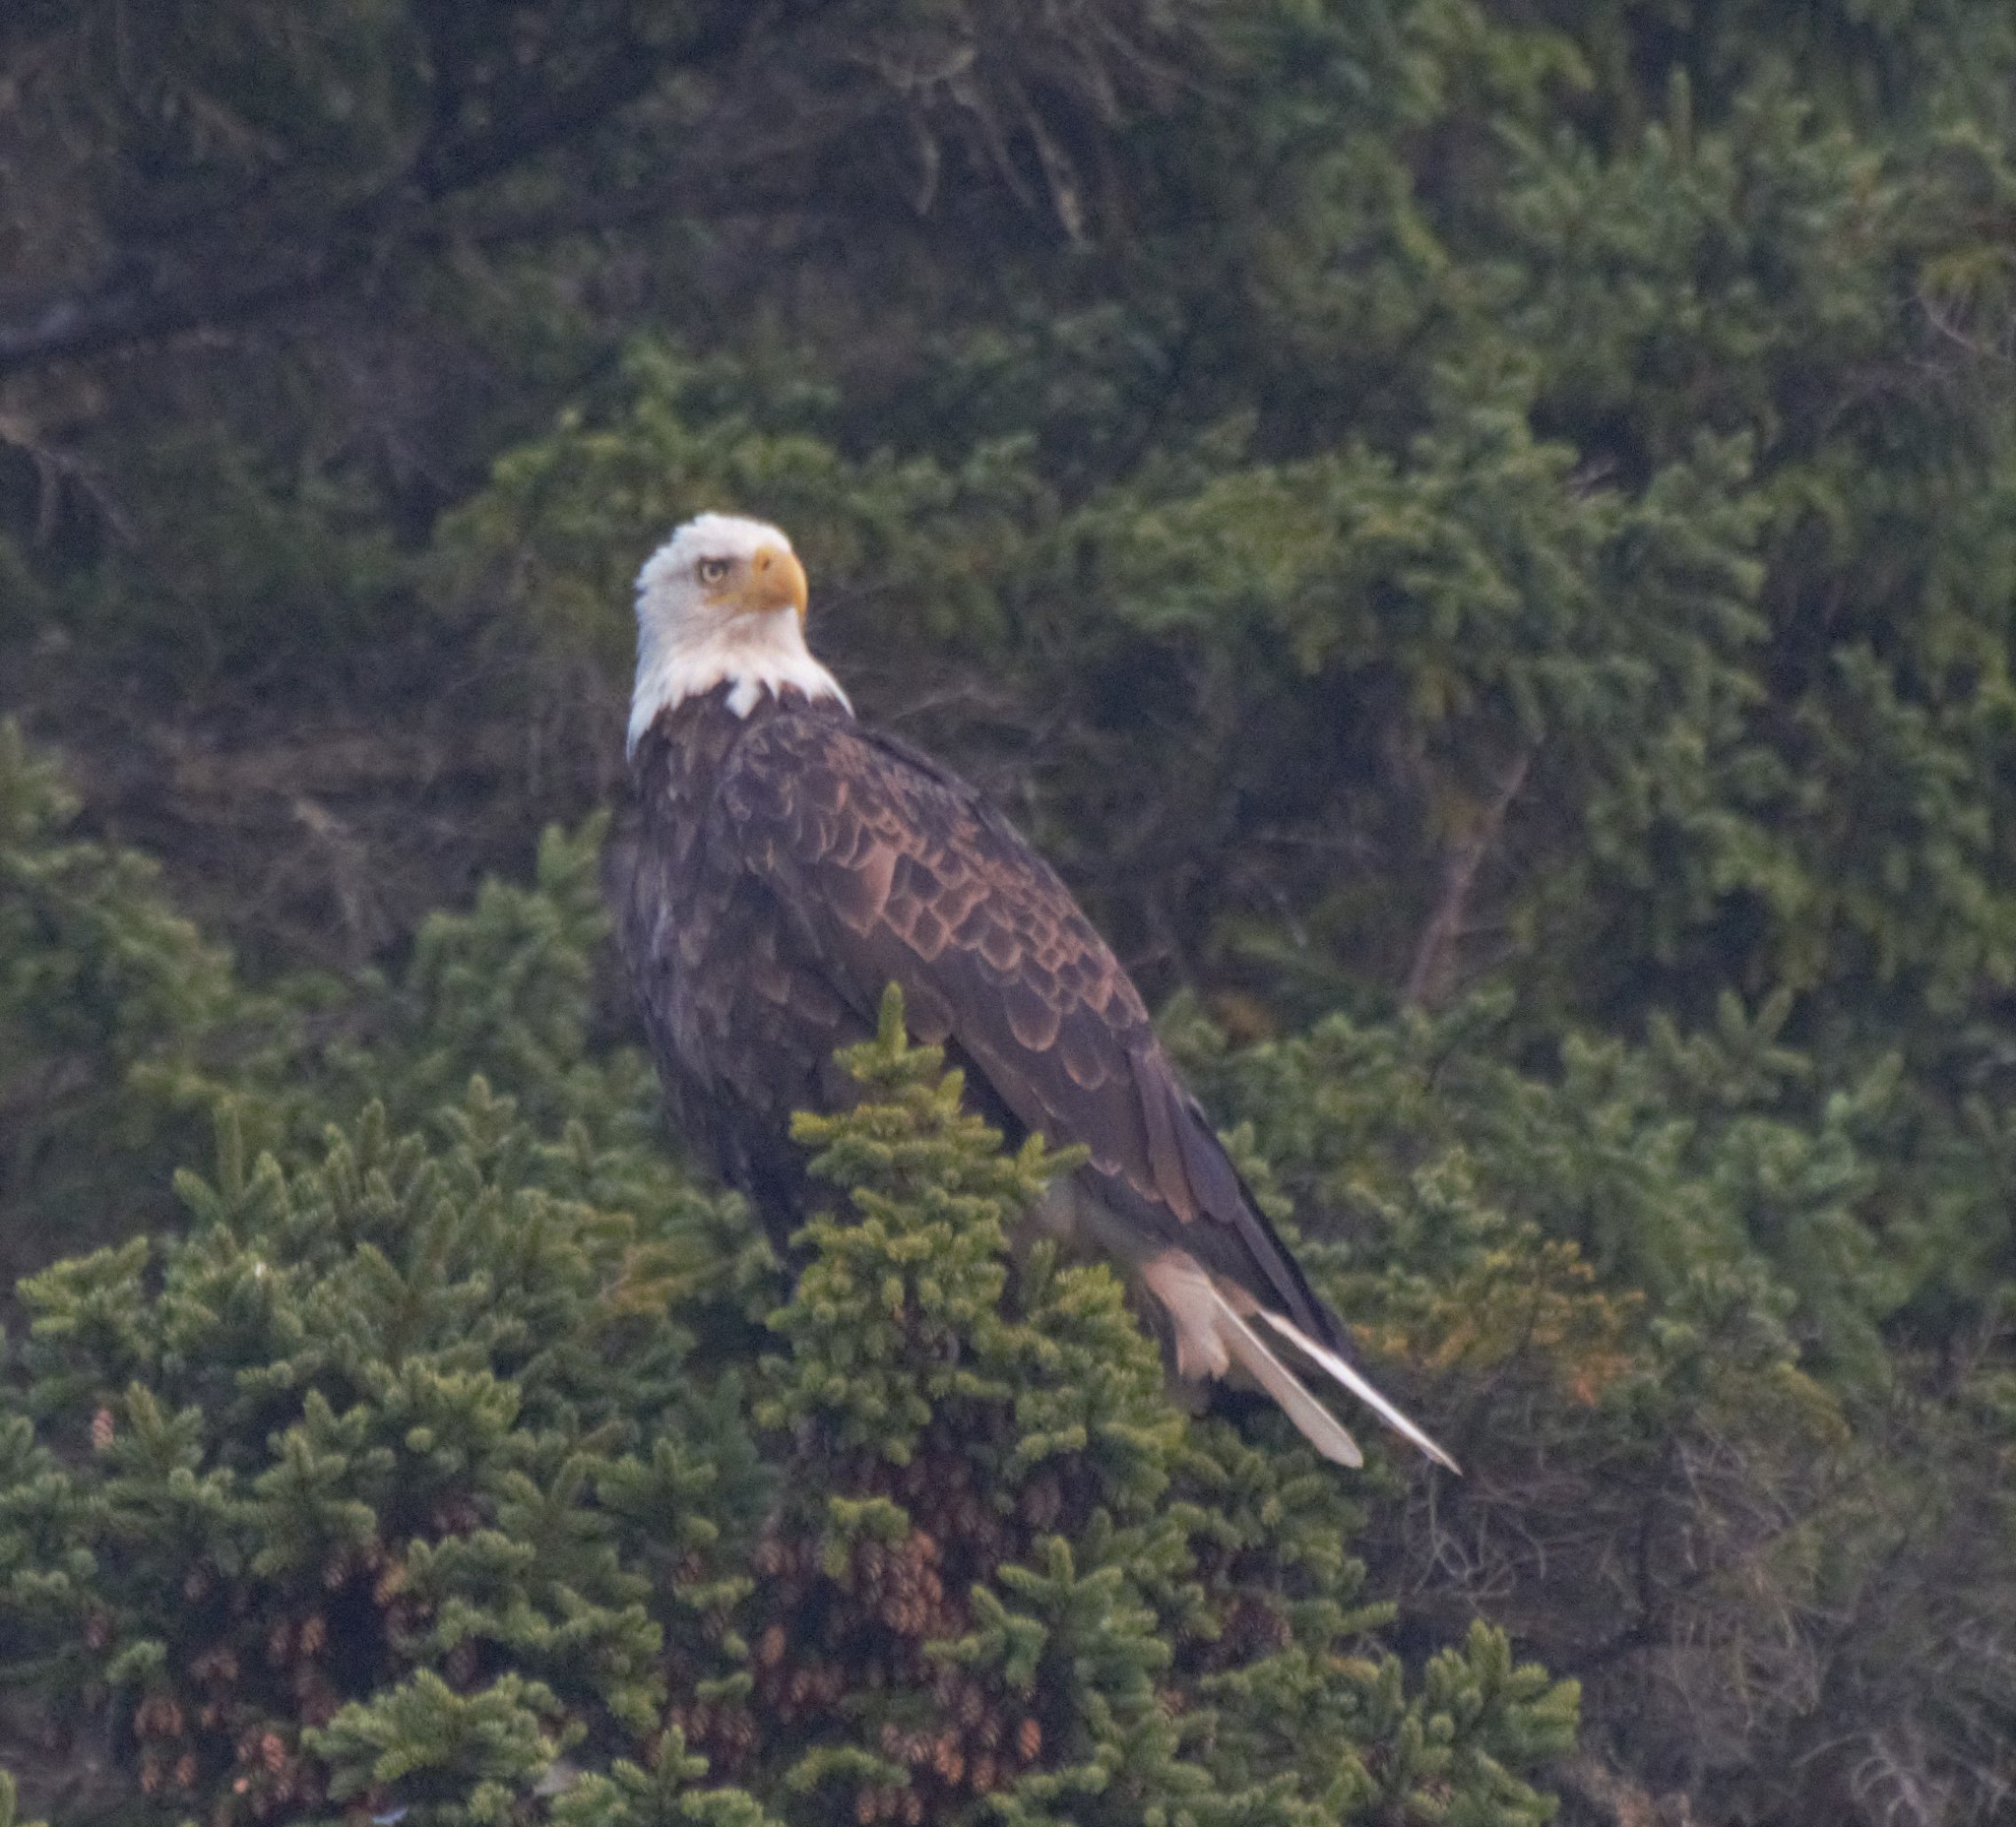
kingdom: Animalia
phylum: Chordata
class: Aves
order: Accipitriformes
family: Accipitridae
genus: Haliaeetus
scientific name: Haliaeetus leucocephalus
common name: Bald eagle
